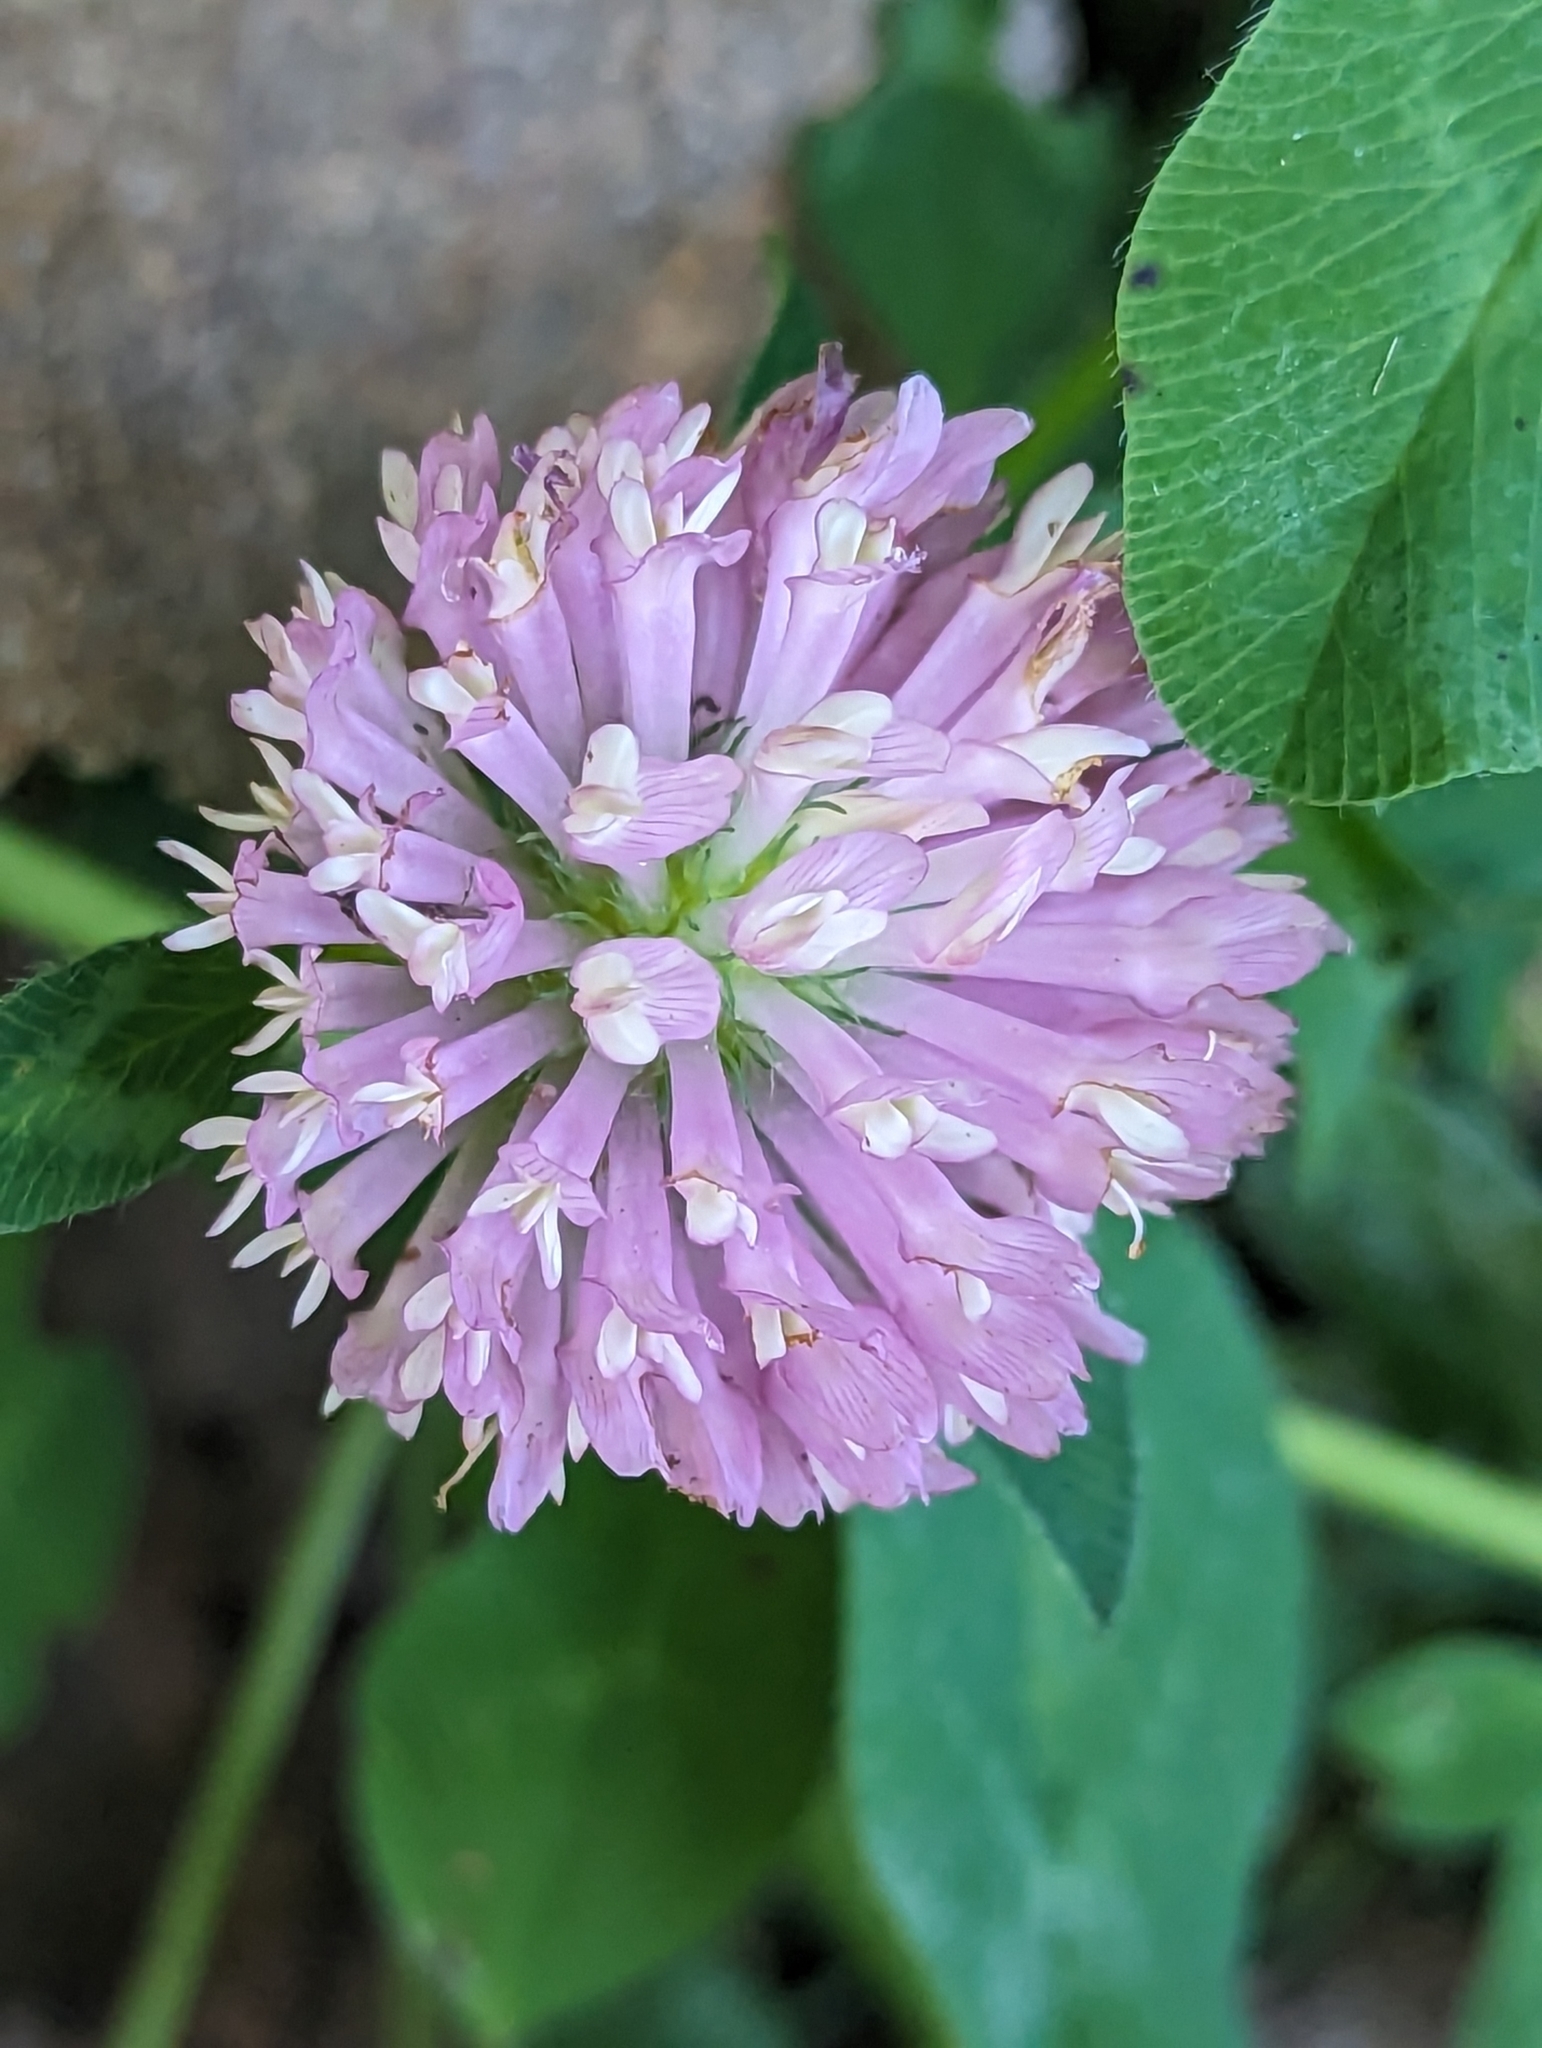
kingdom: Plantae
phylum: Tracheophyta
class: Magnoliopsida
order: Fabales
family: Fabaceae
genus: Trifolium
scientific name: Trifolium pratense
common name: Red clover
